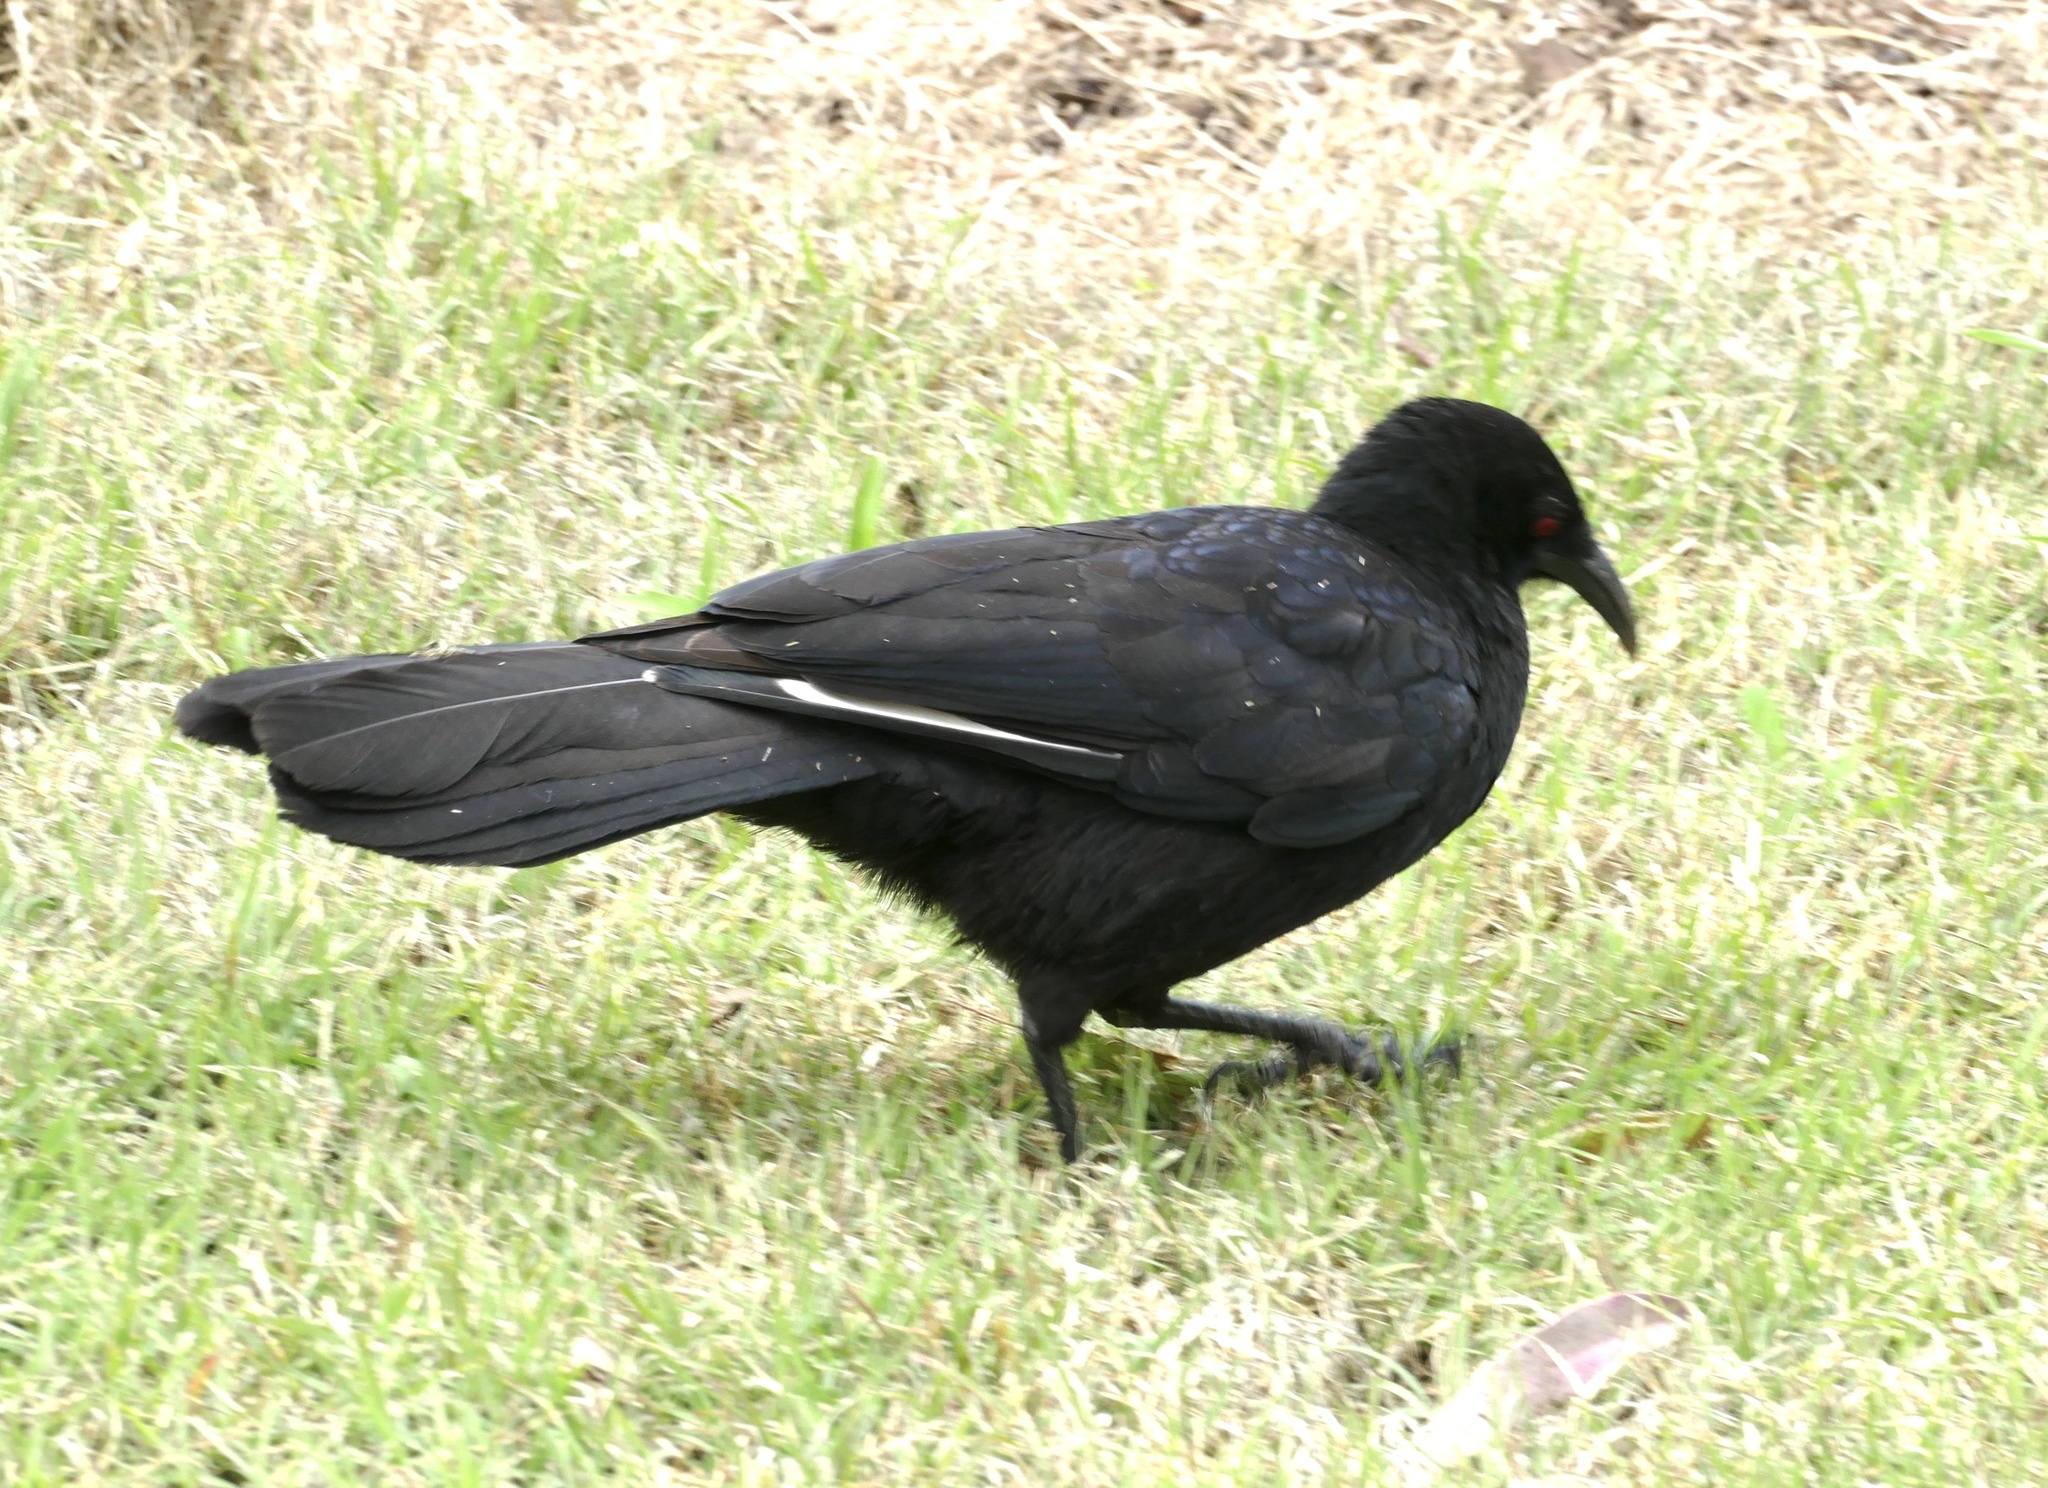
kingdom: Animalia
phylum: Chordata
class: Aves
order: Passeriformes
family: Corcoracidae
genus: Corcorax
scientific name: Corcorax melanoramphos
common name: White-winged chough
